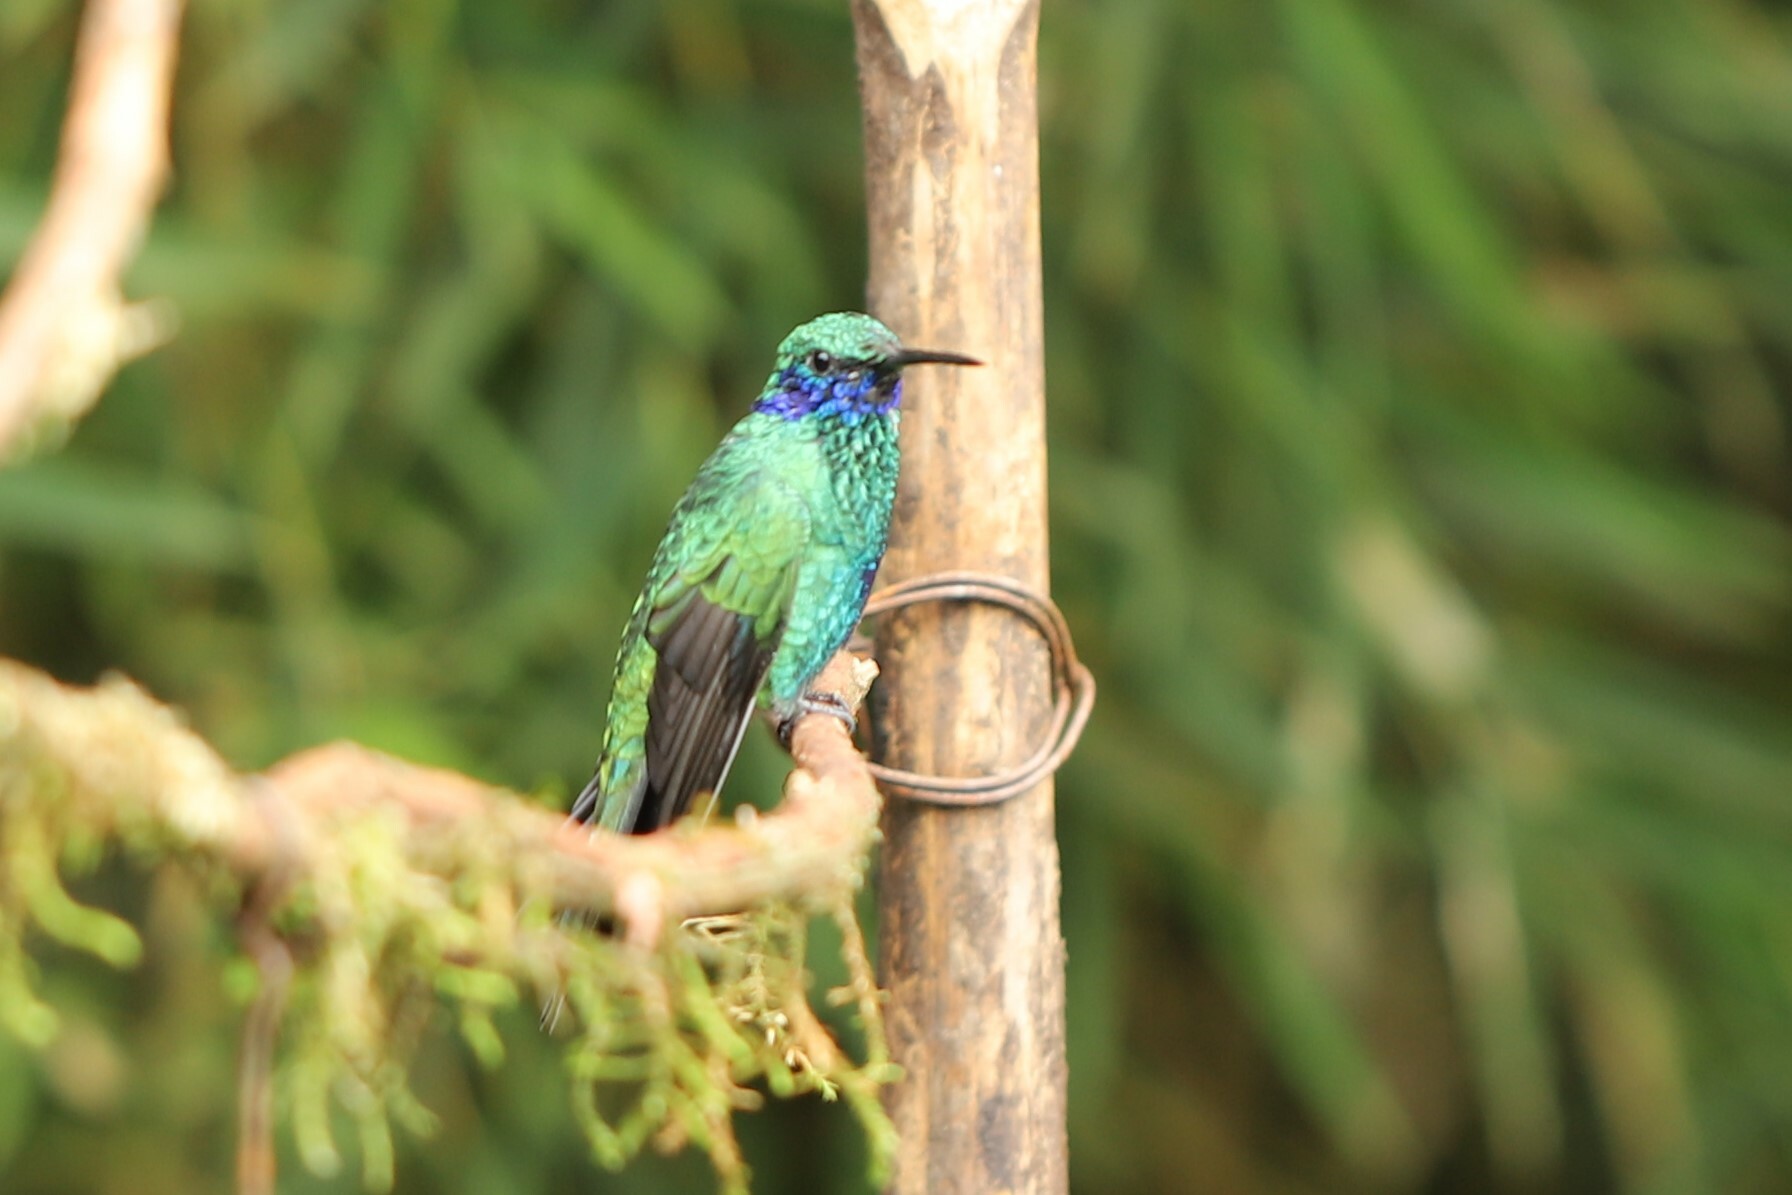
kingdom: Animalia
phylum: Chordata
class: Aves
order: Apodiformes
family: Trochilidae
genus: Colibri
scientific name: Colibri coruscans
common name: Sparkling violetear
